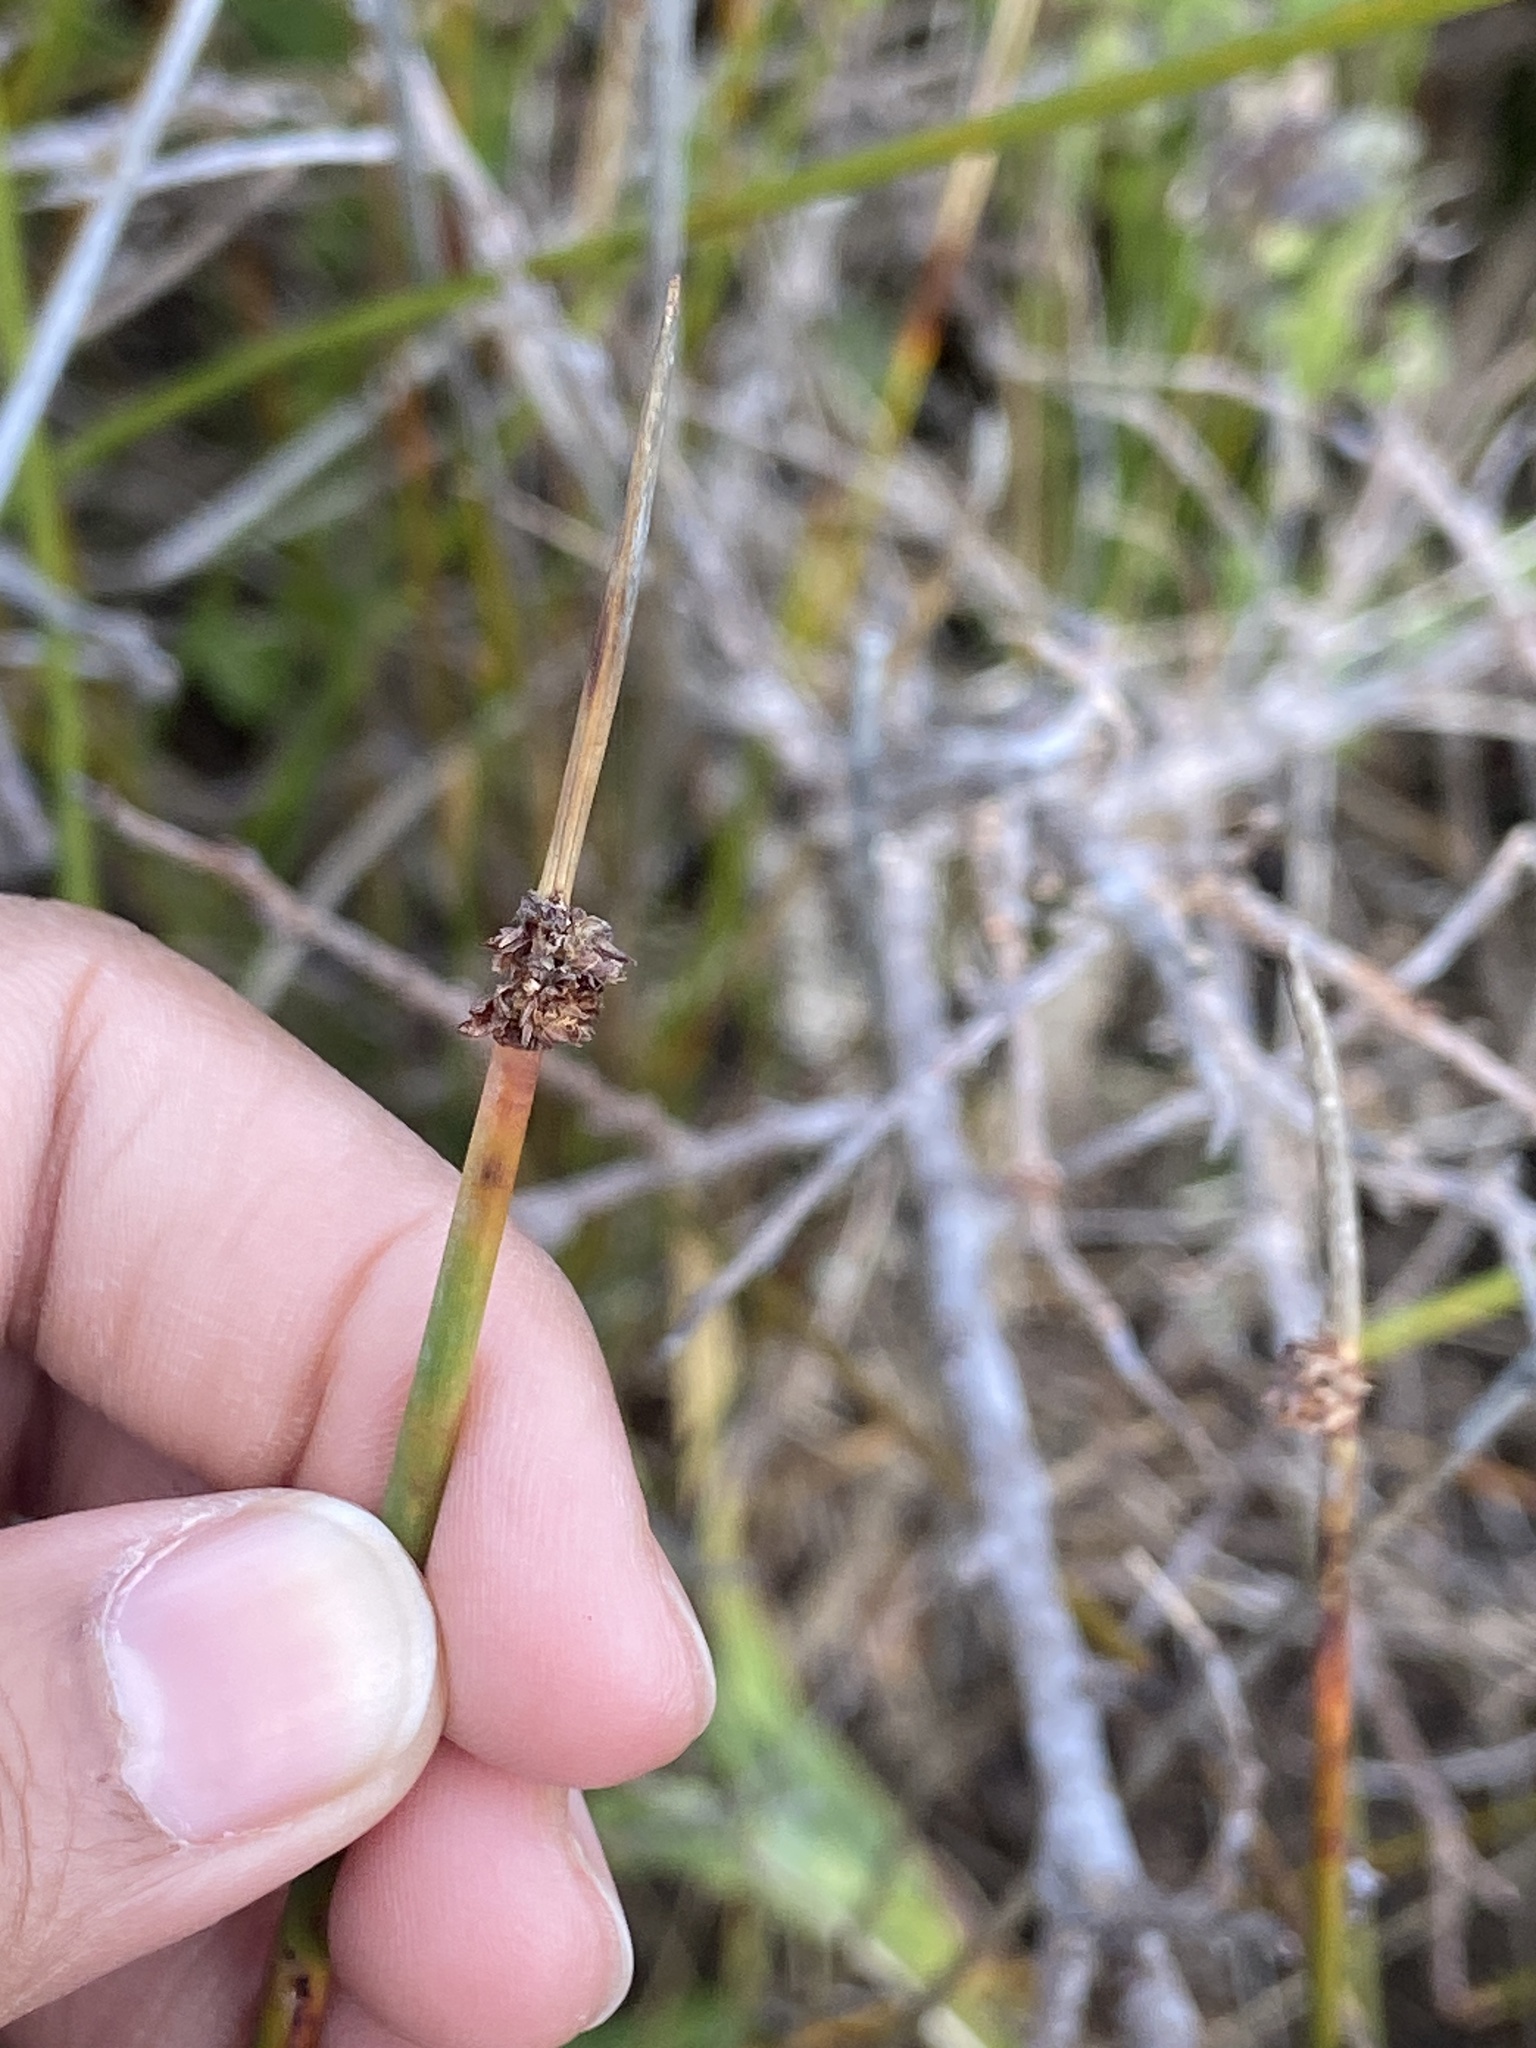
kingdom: Plantae
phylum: Tracheophyta
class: Liliopsida
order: Poales
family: Cyperaceae
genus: Ficinia
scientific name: Ficinia nodosa
